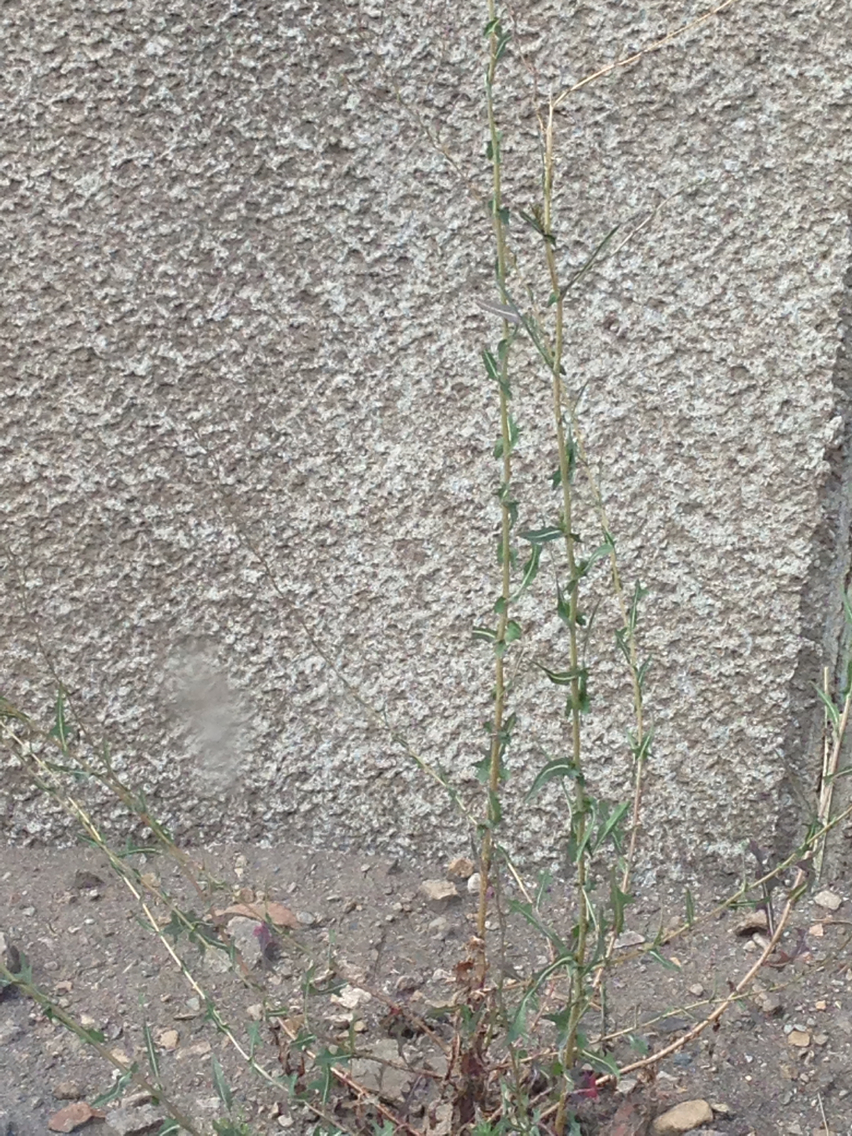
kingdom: Plantae
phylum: Tracheophyta
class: Magnoliopsida
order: Asterales
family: Asteraceae
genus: Lactuca
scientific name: Lactuca serriola
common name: Prickly lettuce
